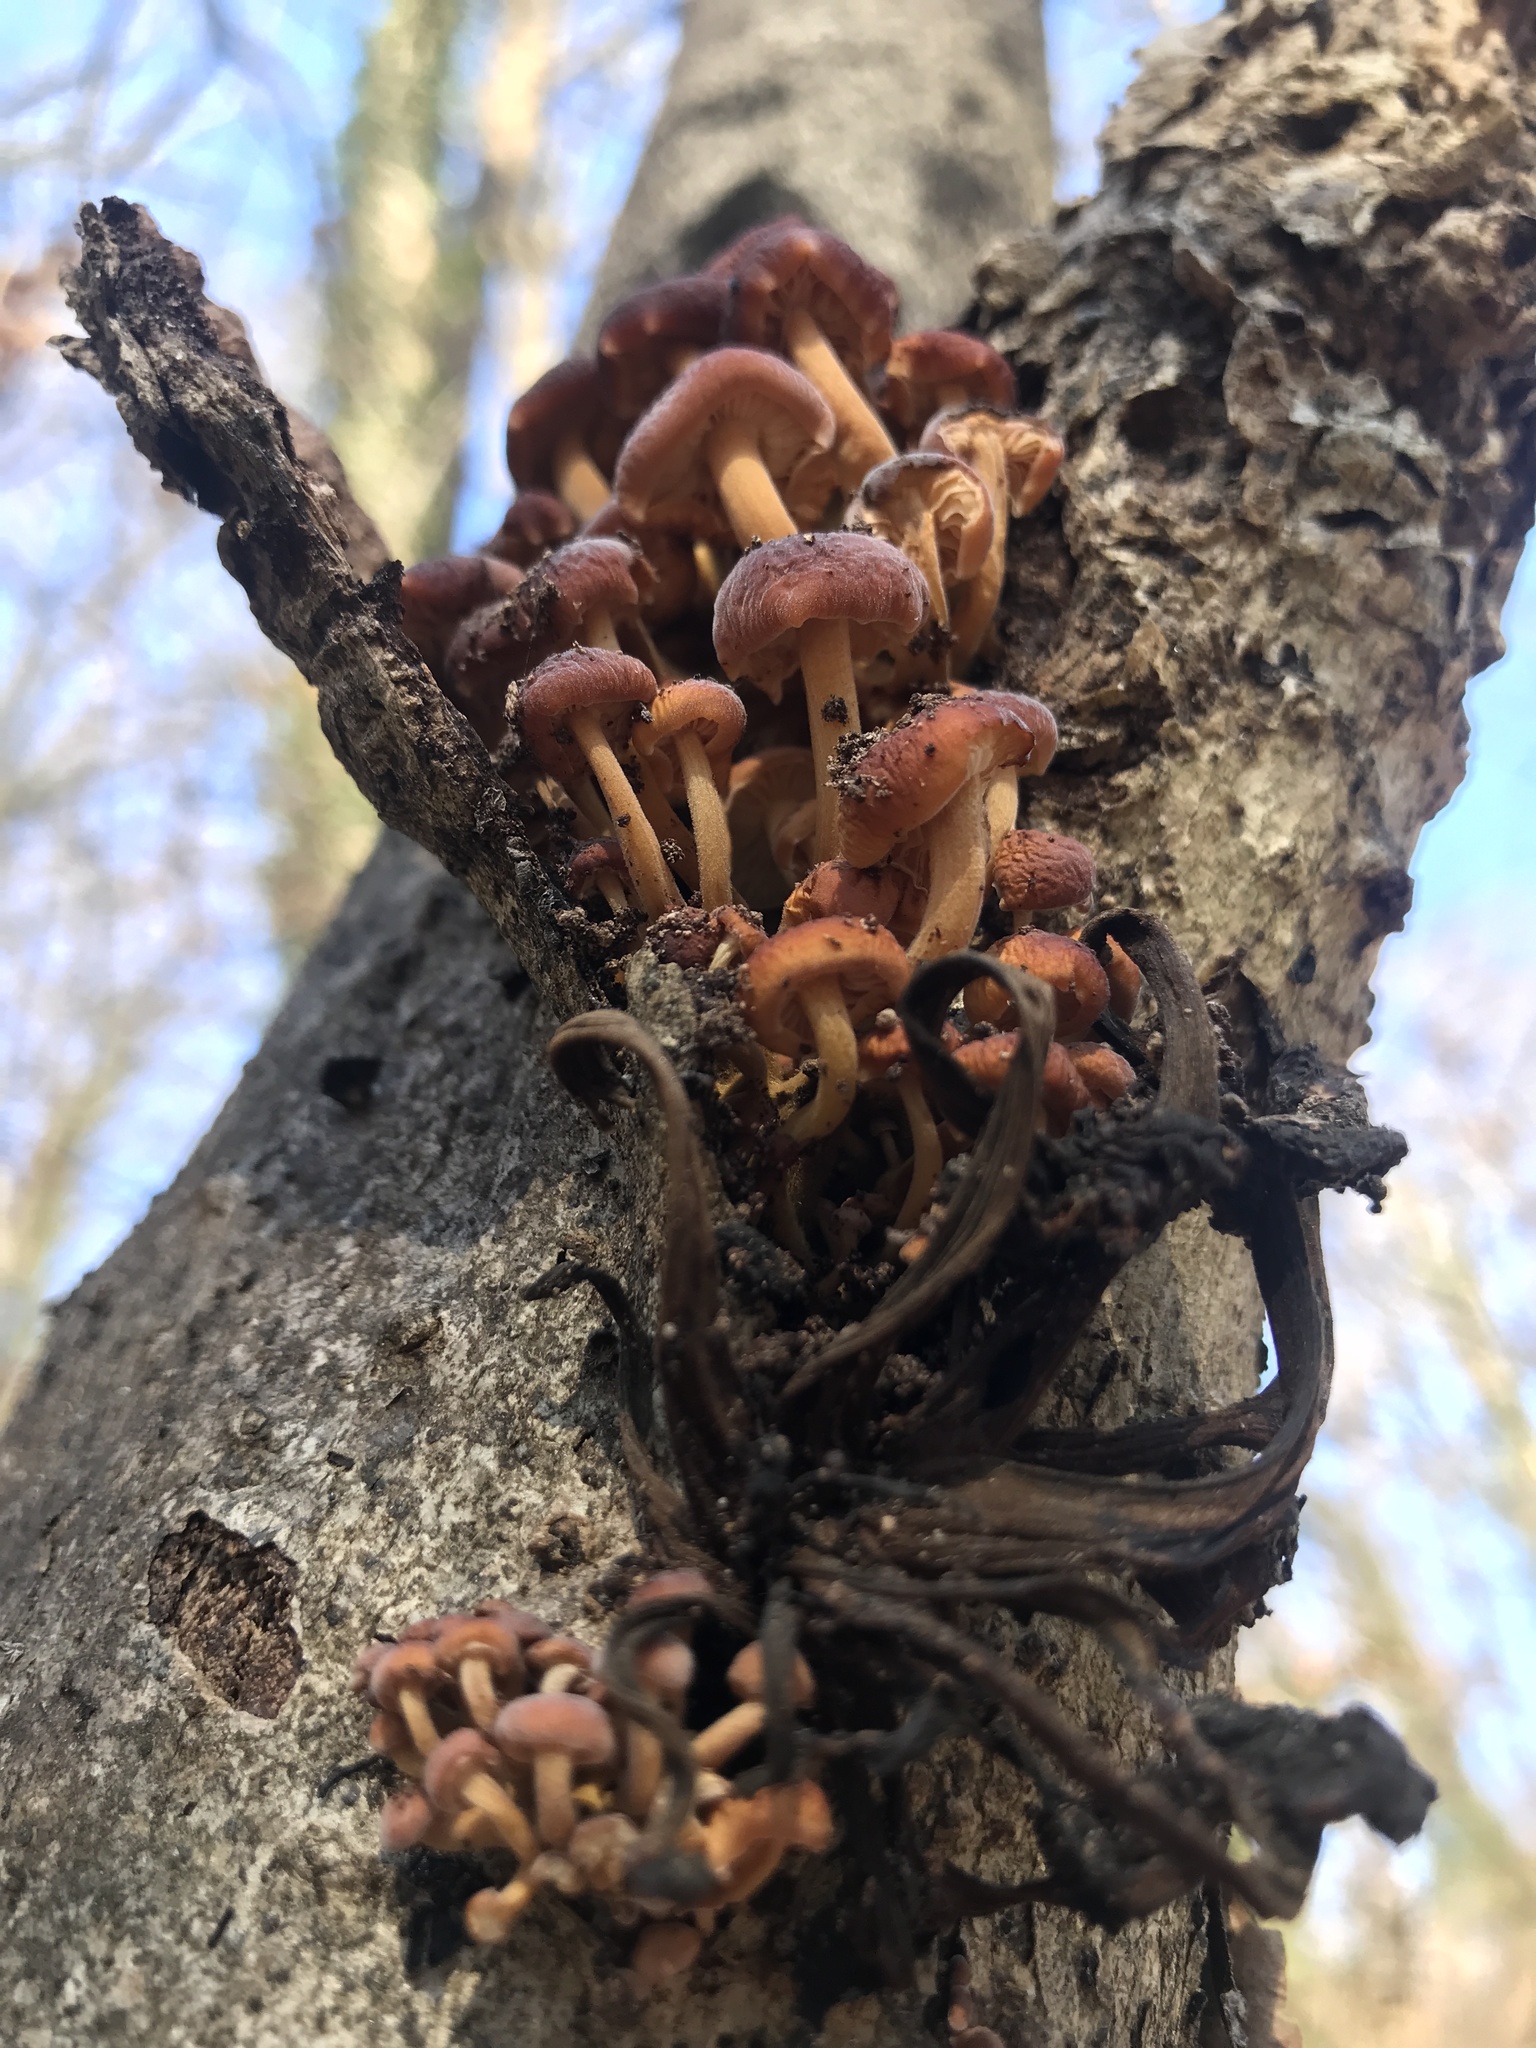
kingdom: Fungi
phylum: Basidiomycota
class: Agaricomycetes
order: Agaricales
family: Physalacriaceae
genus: Flammulina
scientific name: Flammulina velutipes
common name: Velvet shank
